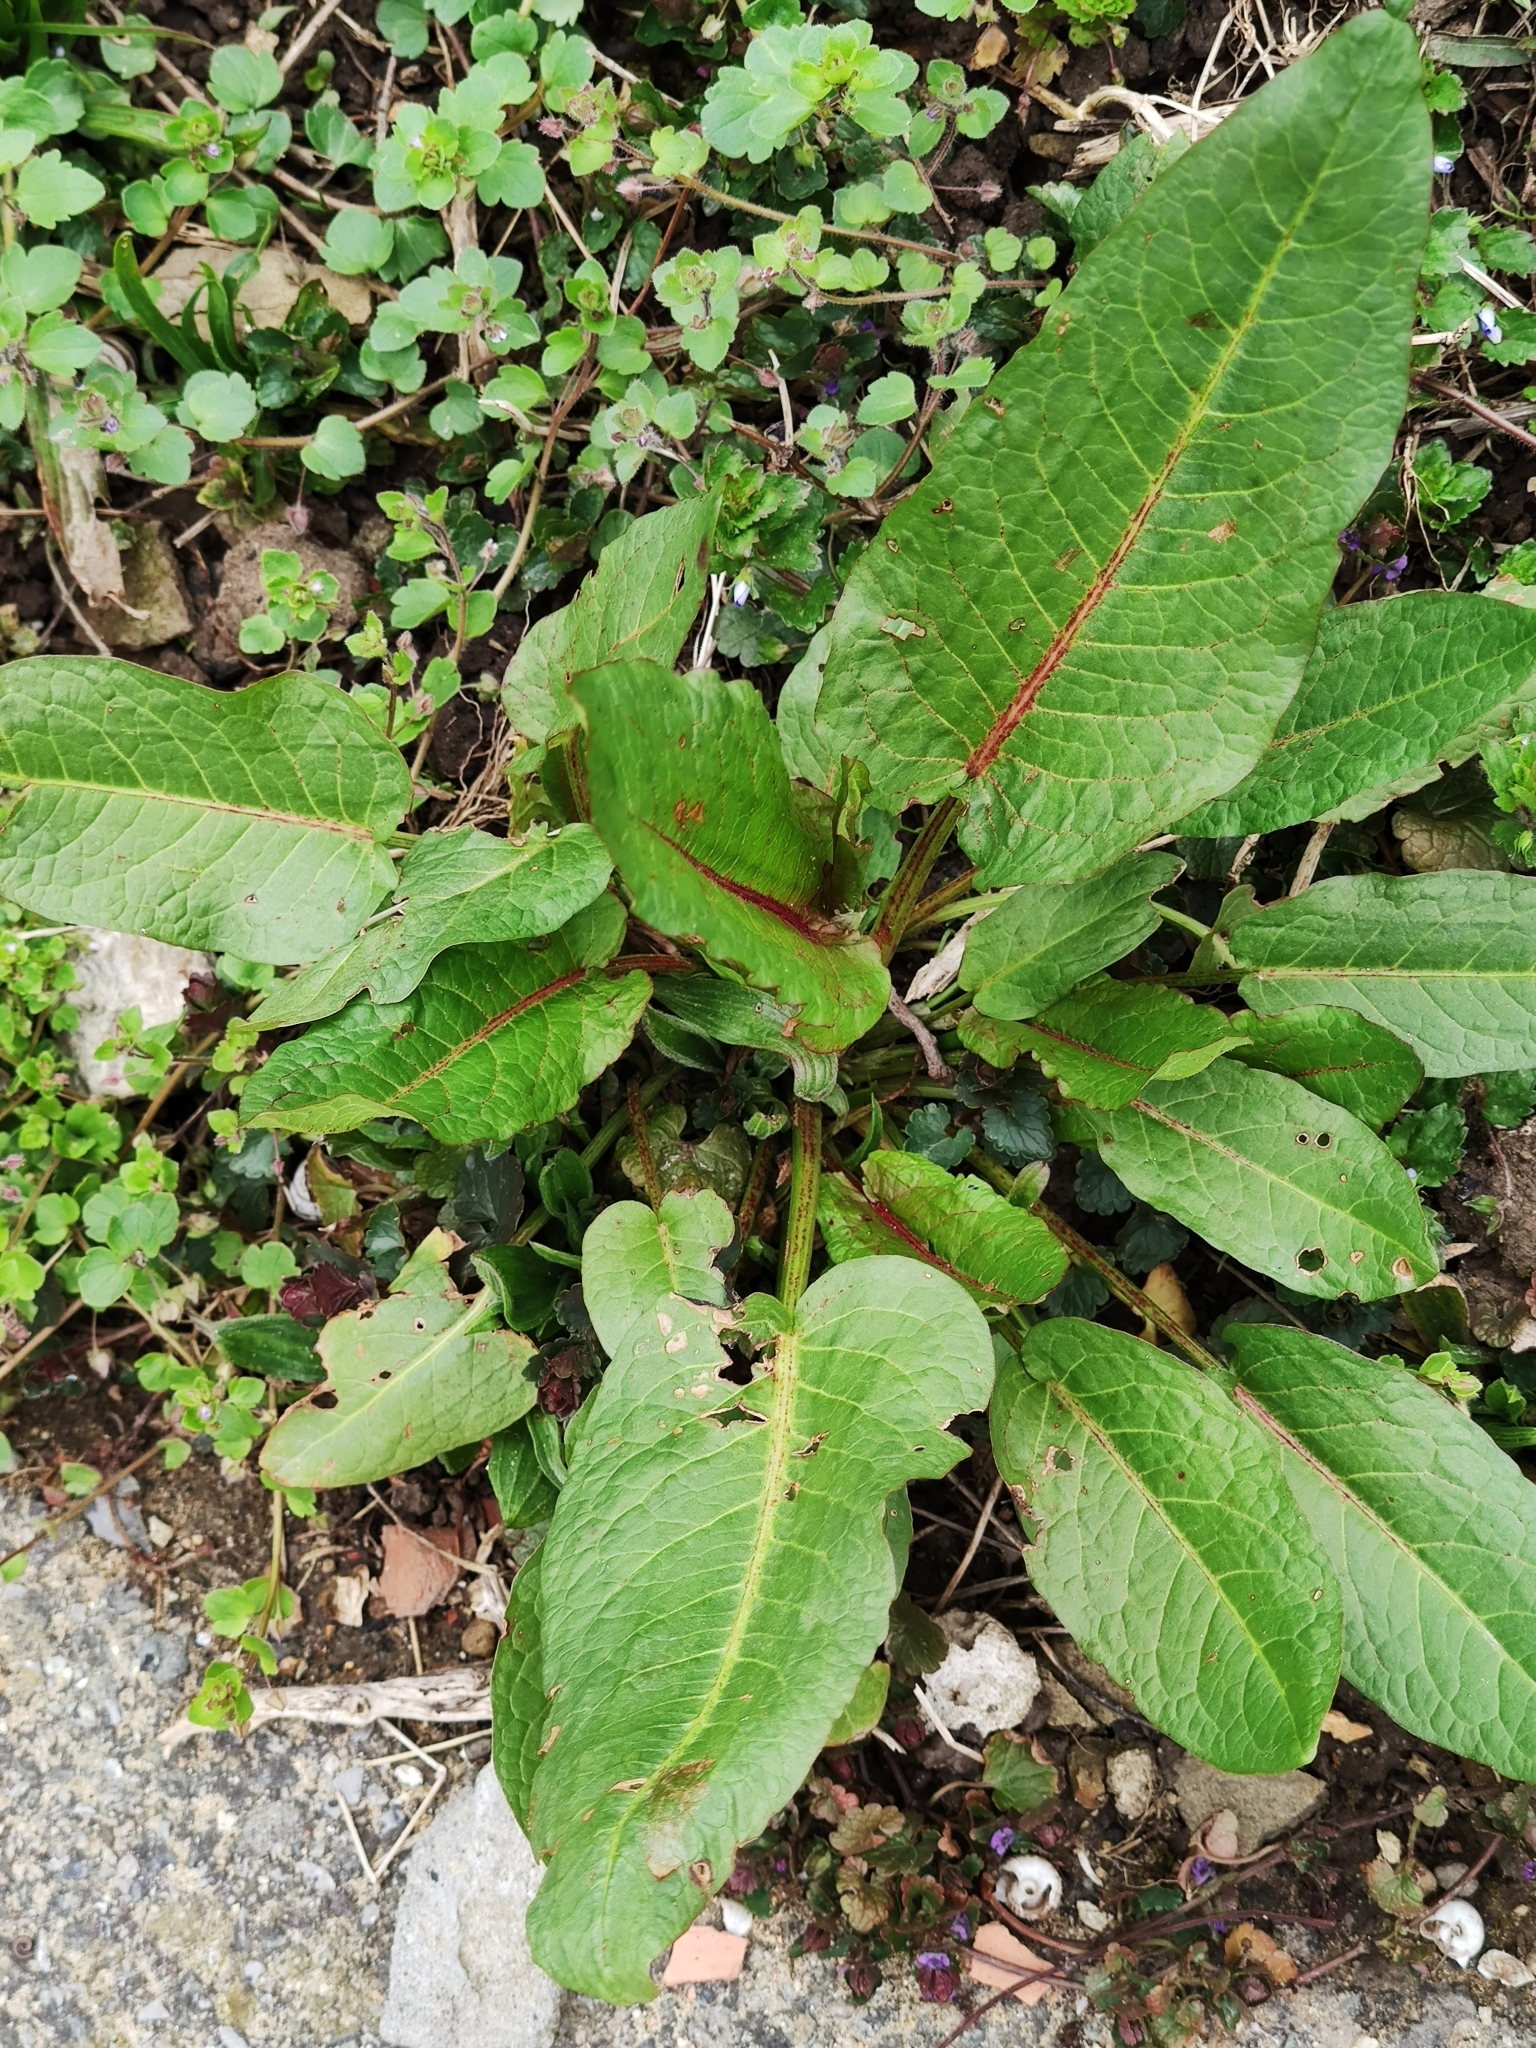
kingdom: Plantae
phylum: Tracheophyta
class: Magnoliopsida
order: Caryophyllales
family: Polygonaceae
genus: Rumex
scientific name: Rumex obtusifolius
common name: Bitter dock
